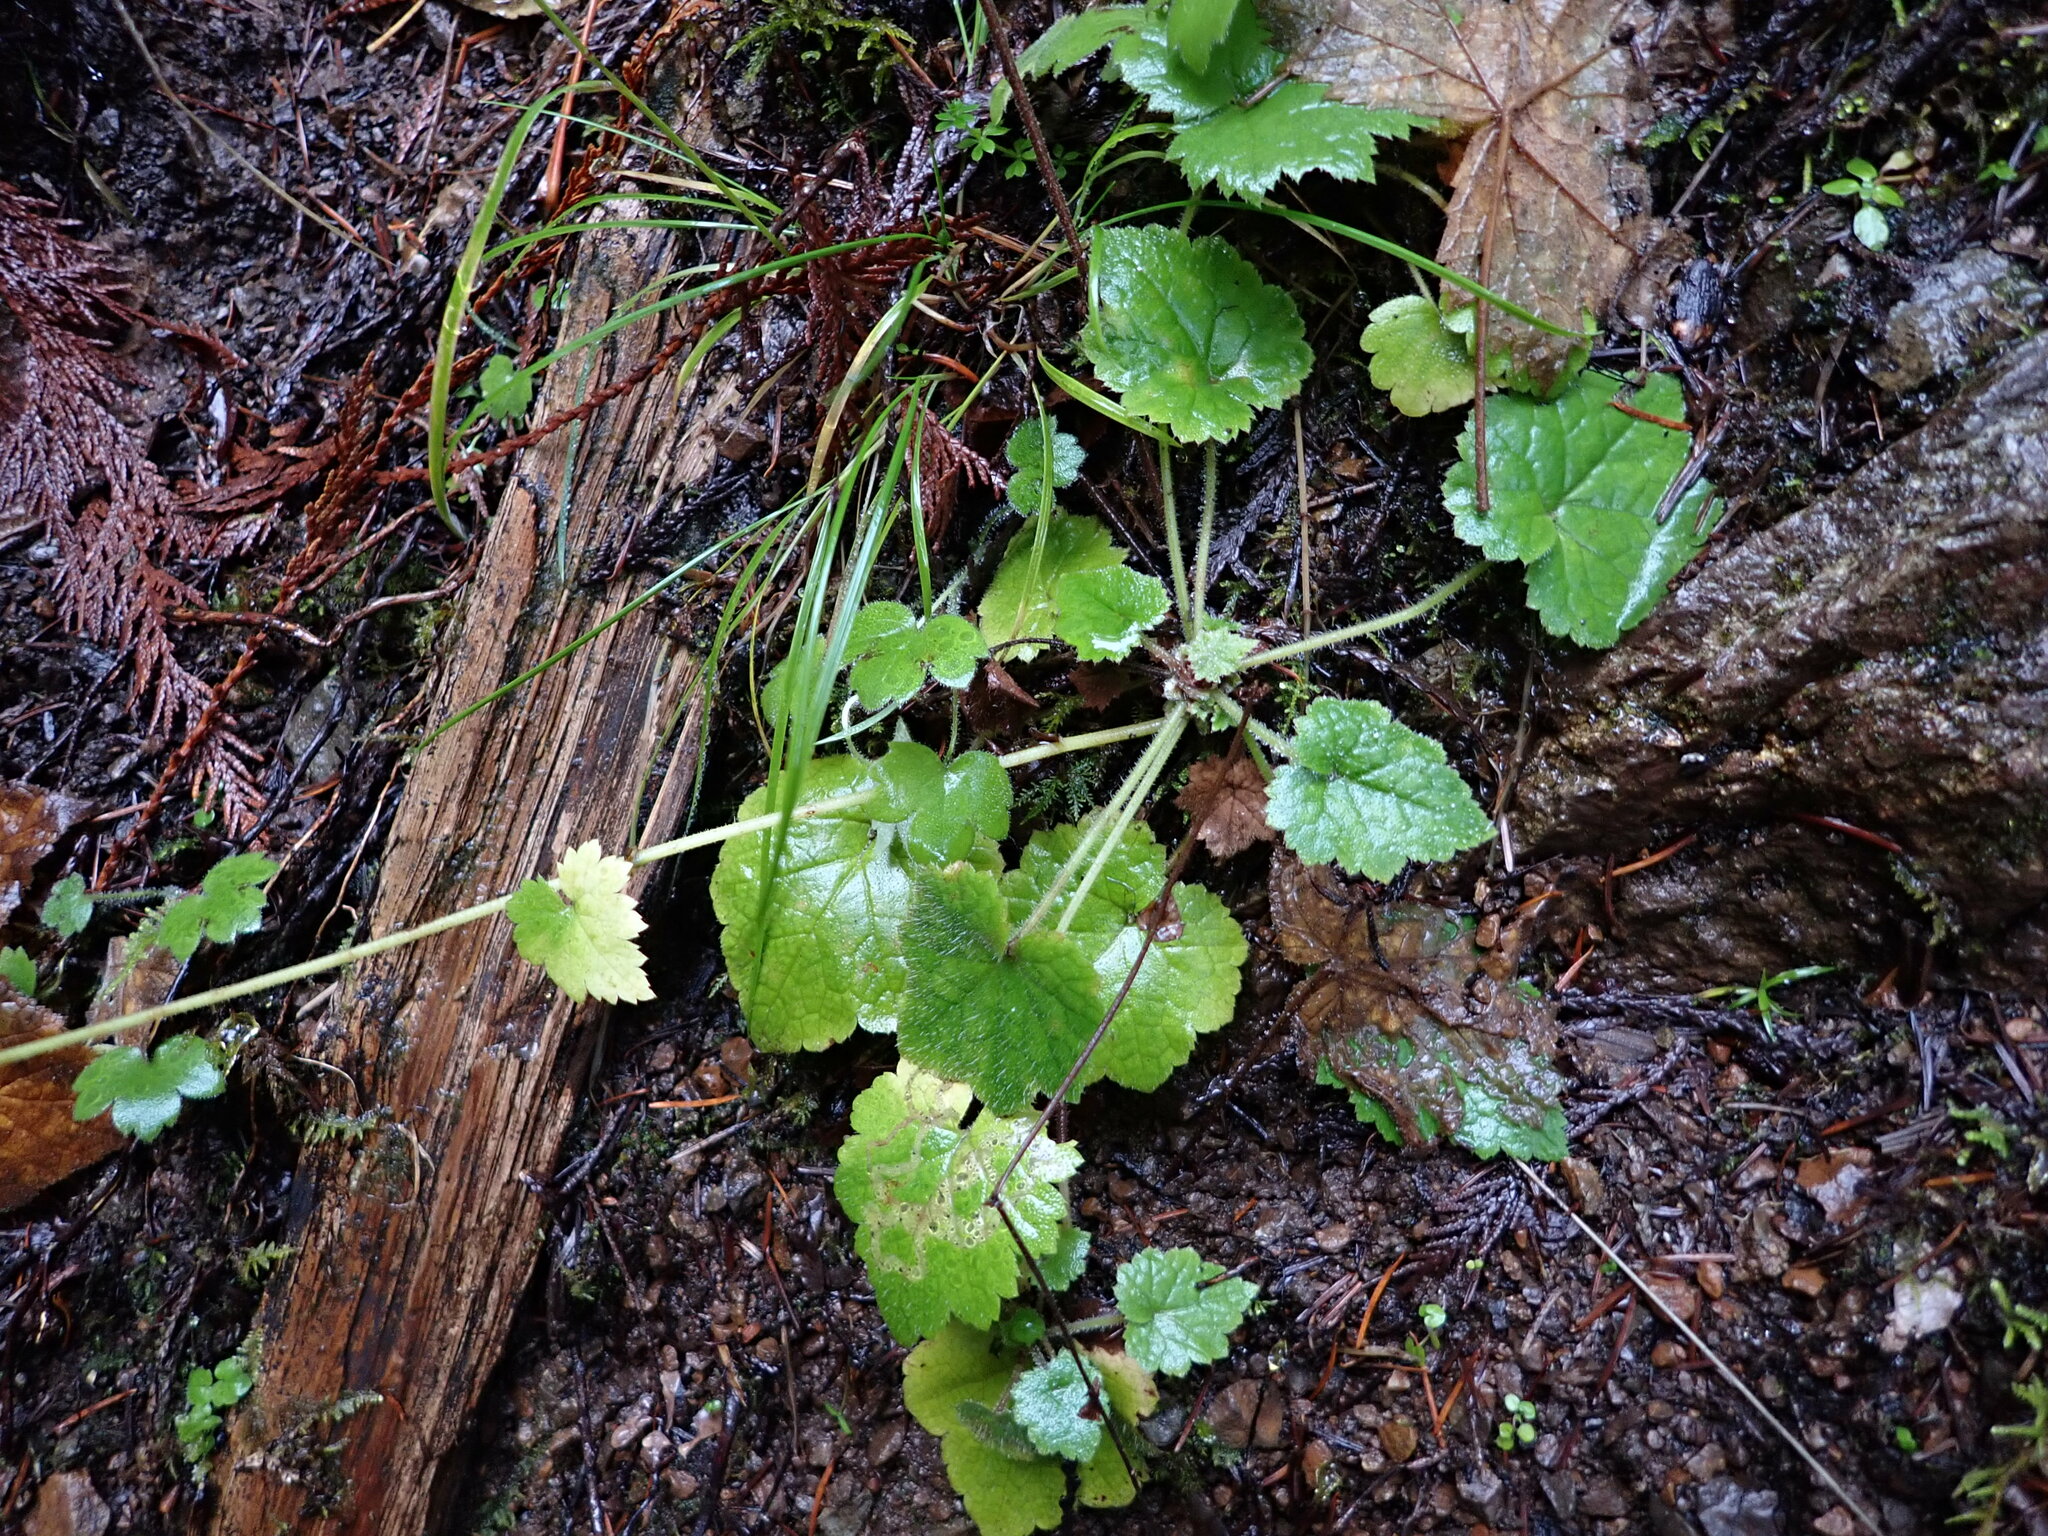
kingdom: Plantae
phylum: Tracheophyta
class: Magnoliopsida
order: Saxifragales
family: Saxifragaceae
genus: Tolmiea
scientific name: Tolmiea menziesii
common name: Pick-a-back-plant
